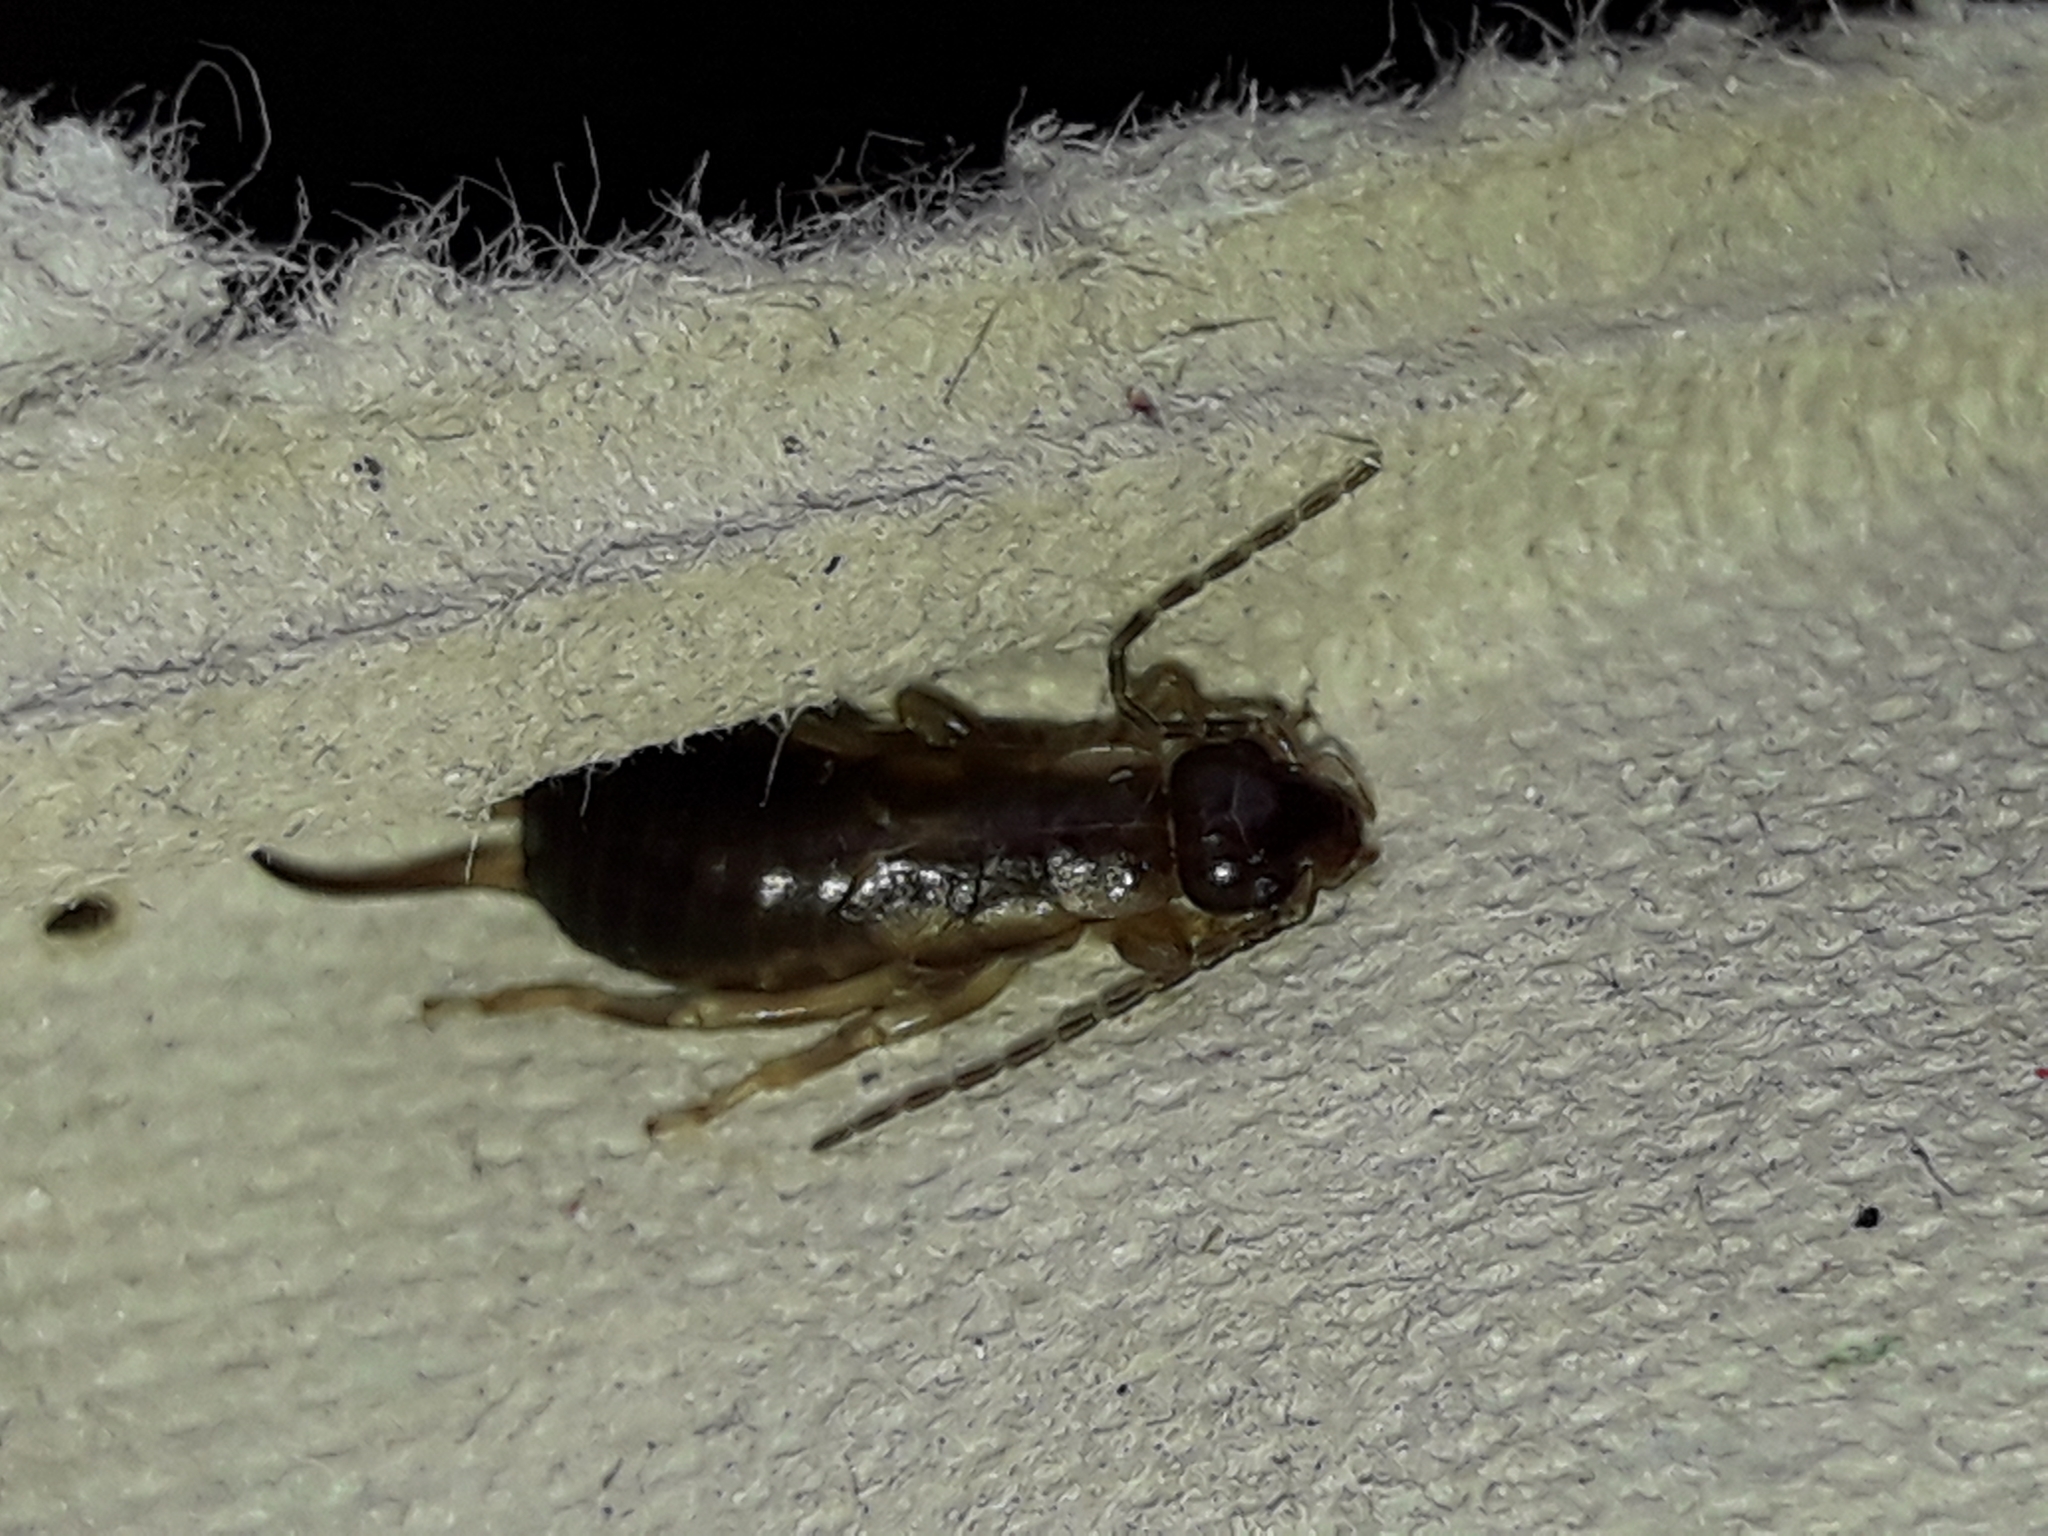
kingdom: Animalia
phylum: Arthropoda
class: Insecta
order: Dermaptera
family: Forficulidae
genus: Forficula
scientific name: Forficula
